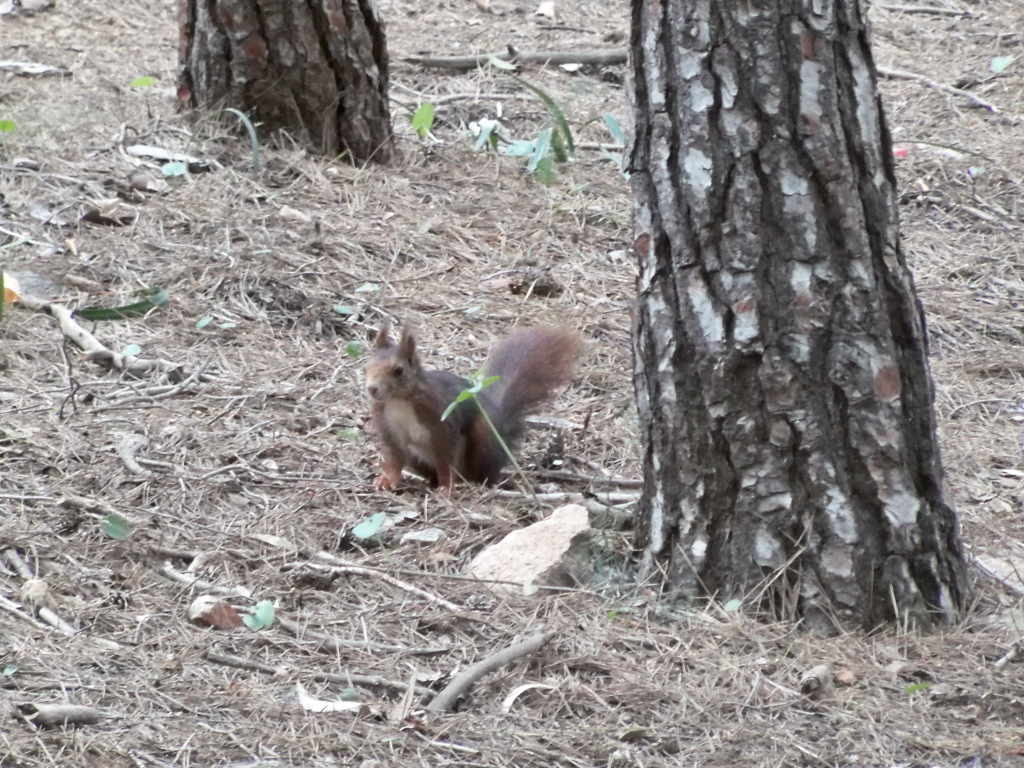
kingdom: Animalia
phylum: Chordata
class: Mammalia
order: Rodentia
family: Sciuridae
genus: Sciurus
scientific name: Sciurus vulgaris
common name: Eurasian red squirrel
